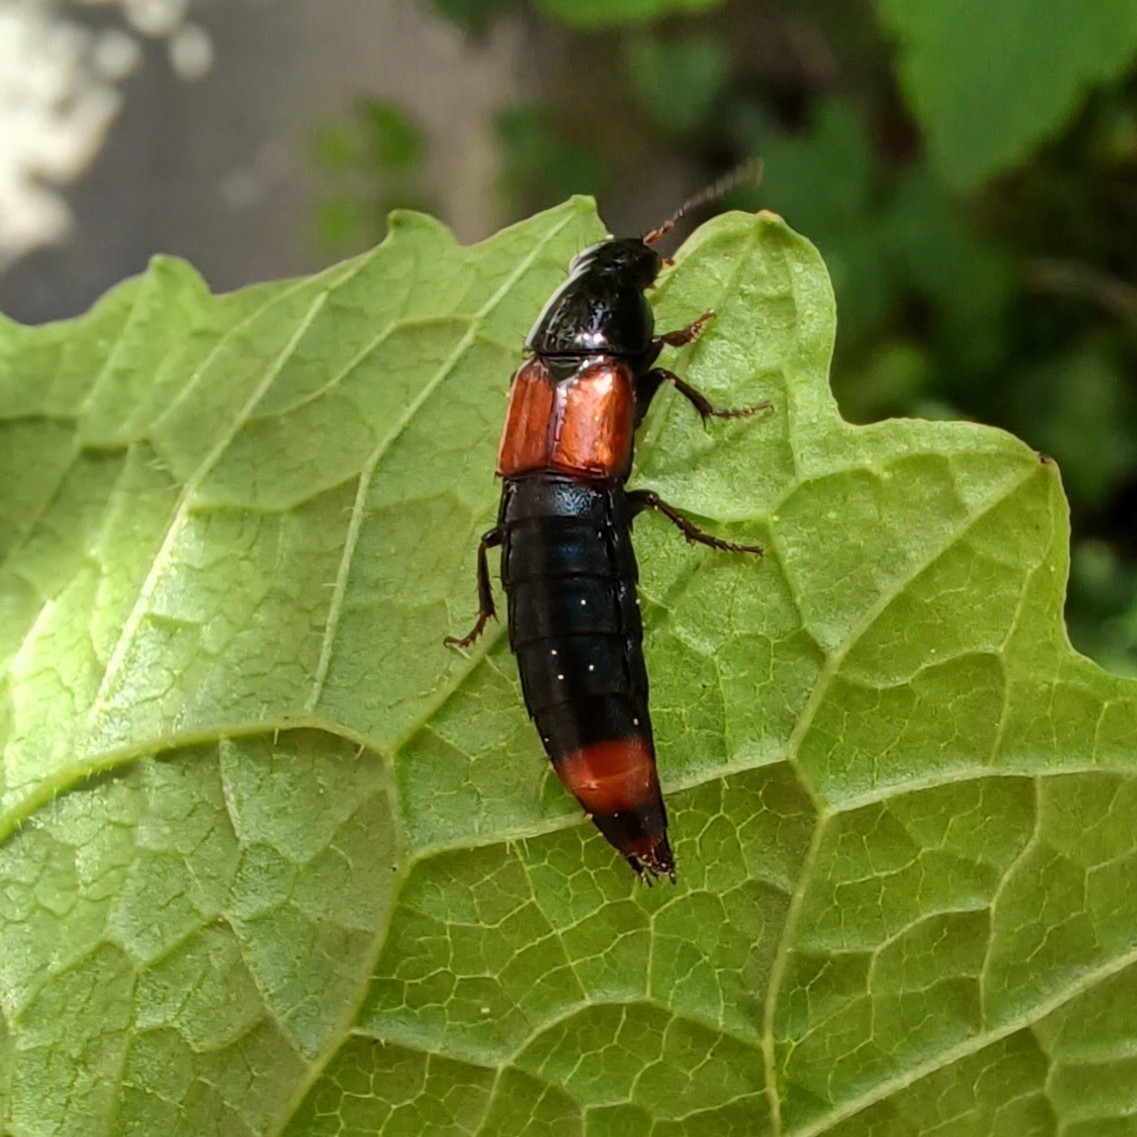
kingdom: Animalia
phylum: Arthropoda
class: Insecta
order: Coleoptera
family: Staphylinidae
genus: Astrapaeus
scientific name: Astrapaeus ulmi
